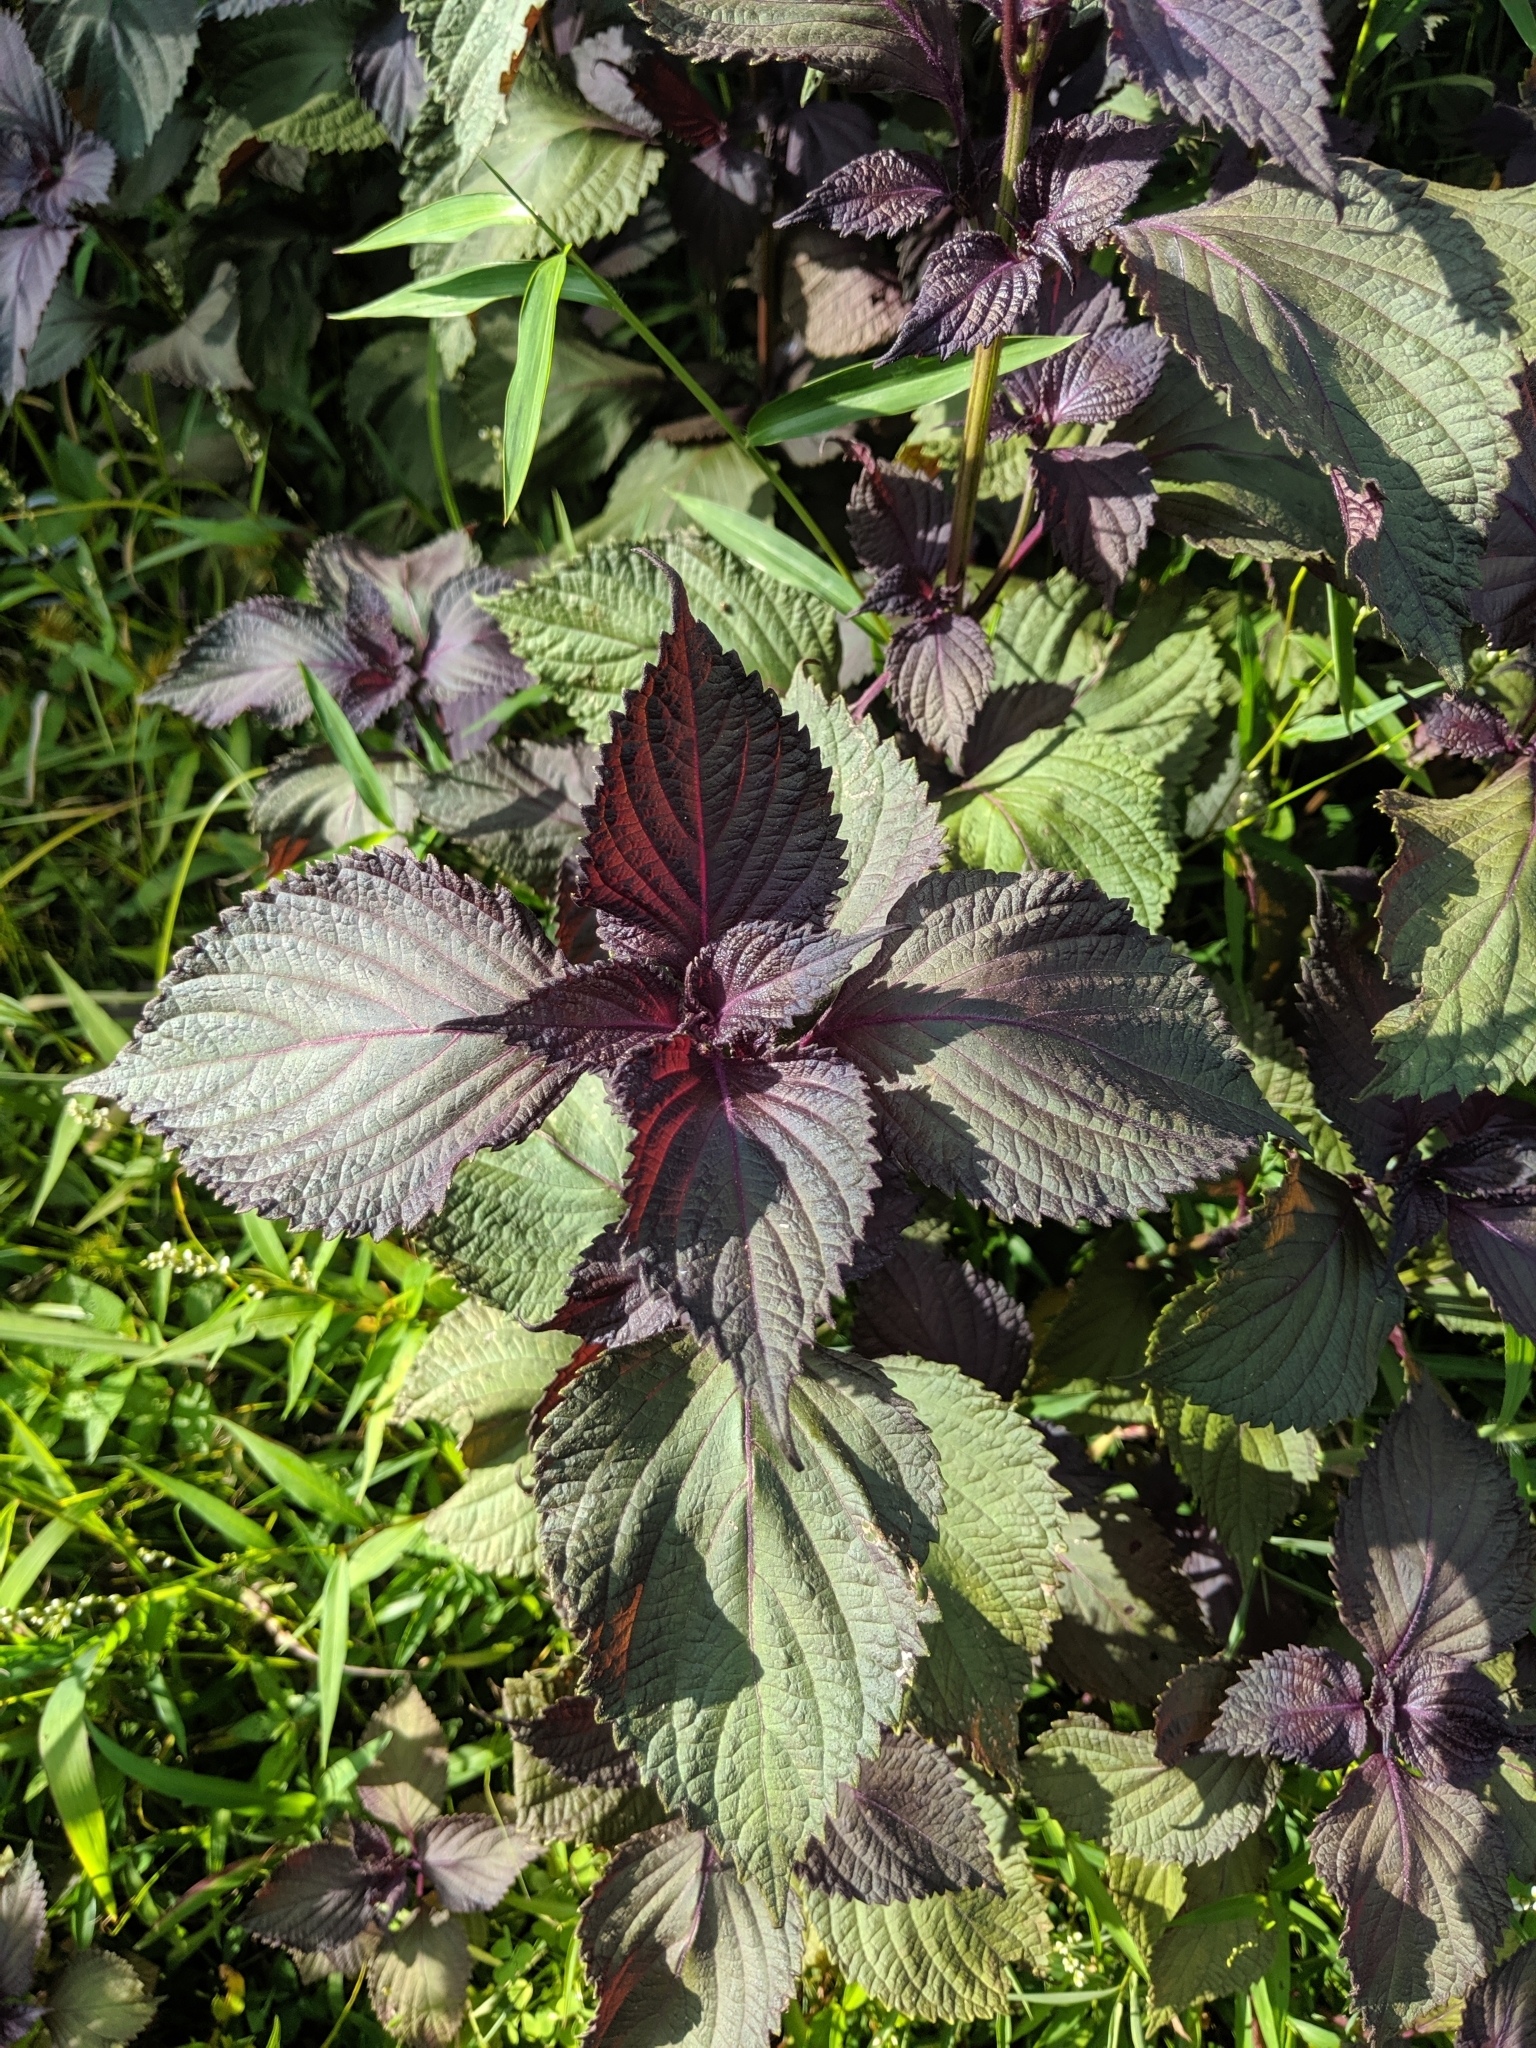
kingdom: Plantae
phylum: Tracheophyta
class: Magnoliopsida
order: Lamiales
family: Lamiaceae
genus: Perilla
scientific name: Perilla frutescens
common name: Perilla
